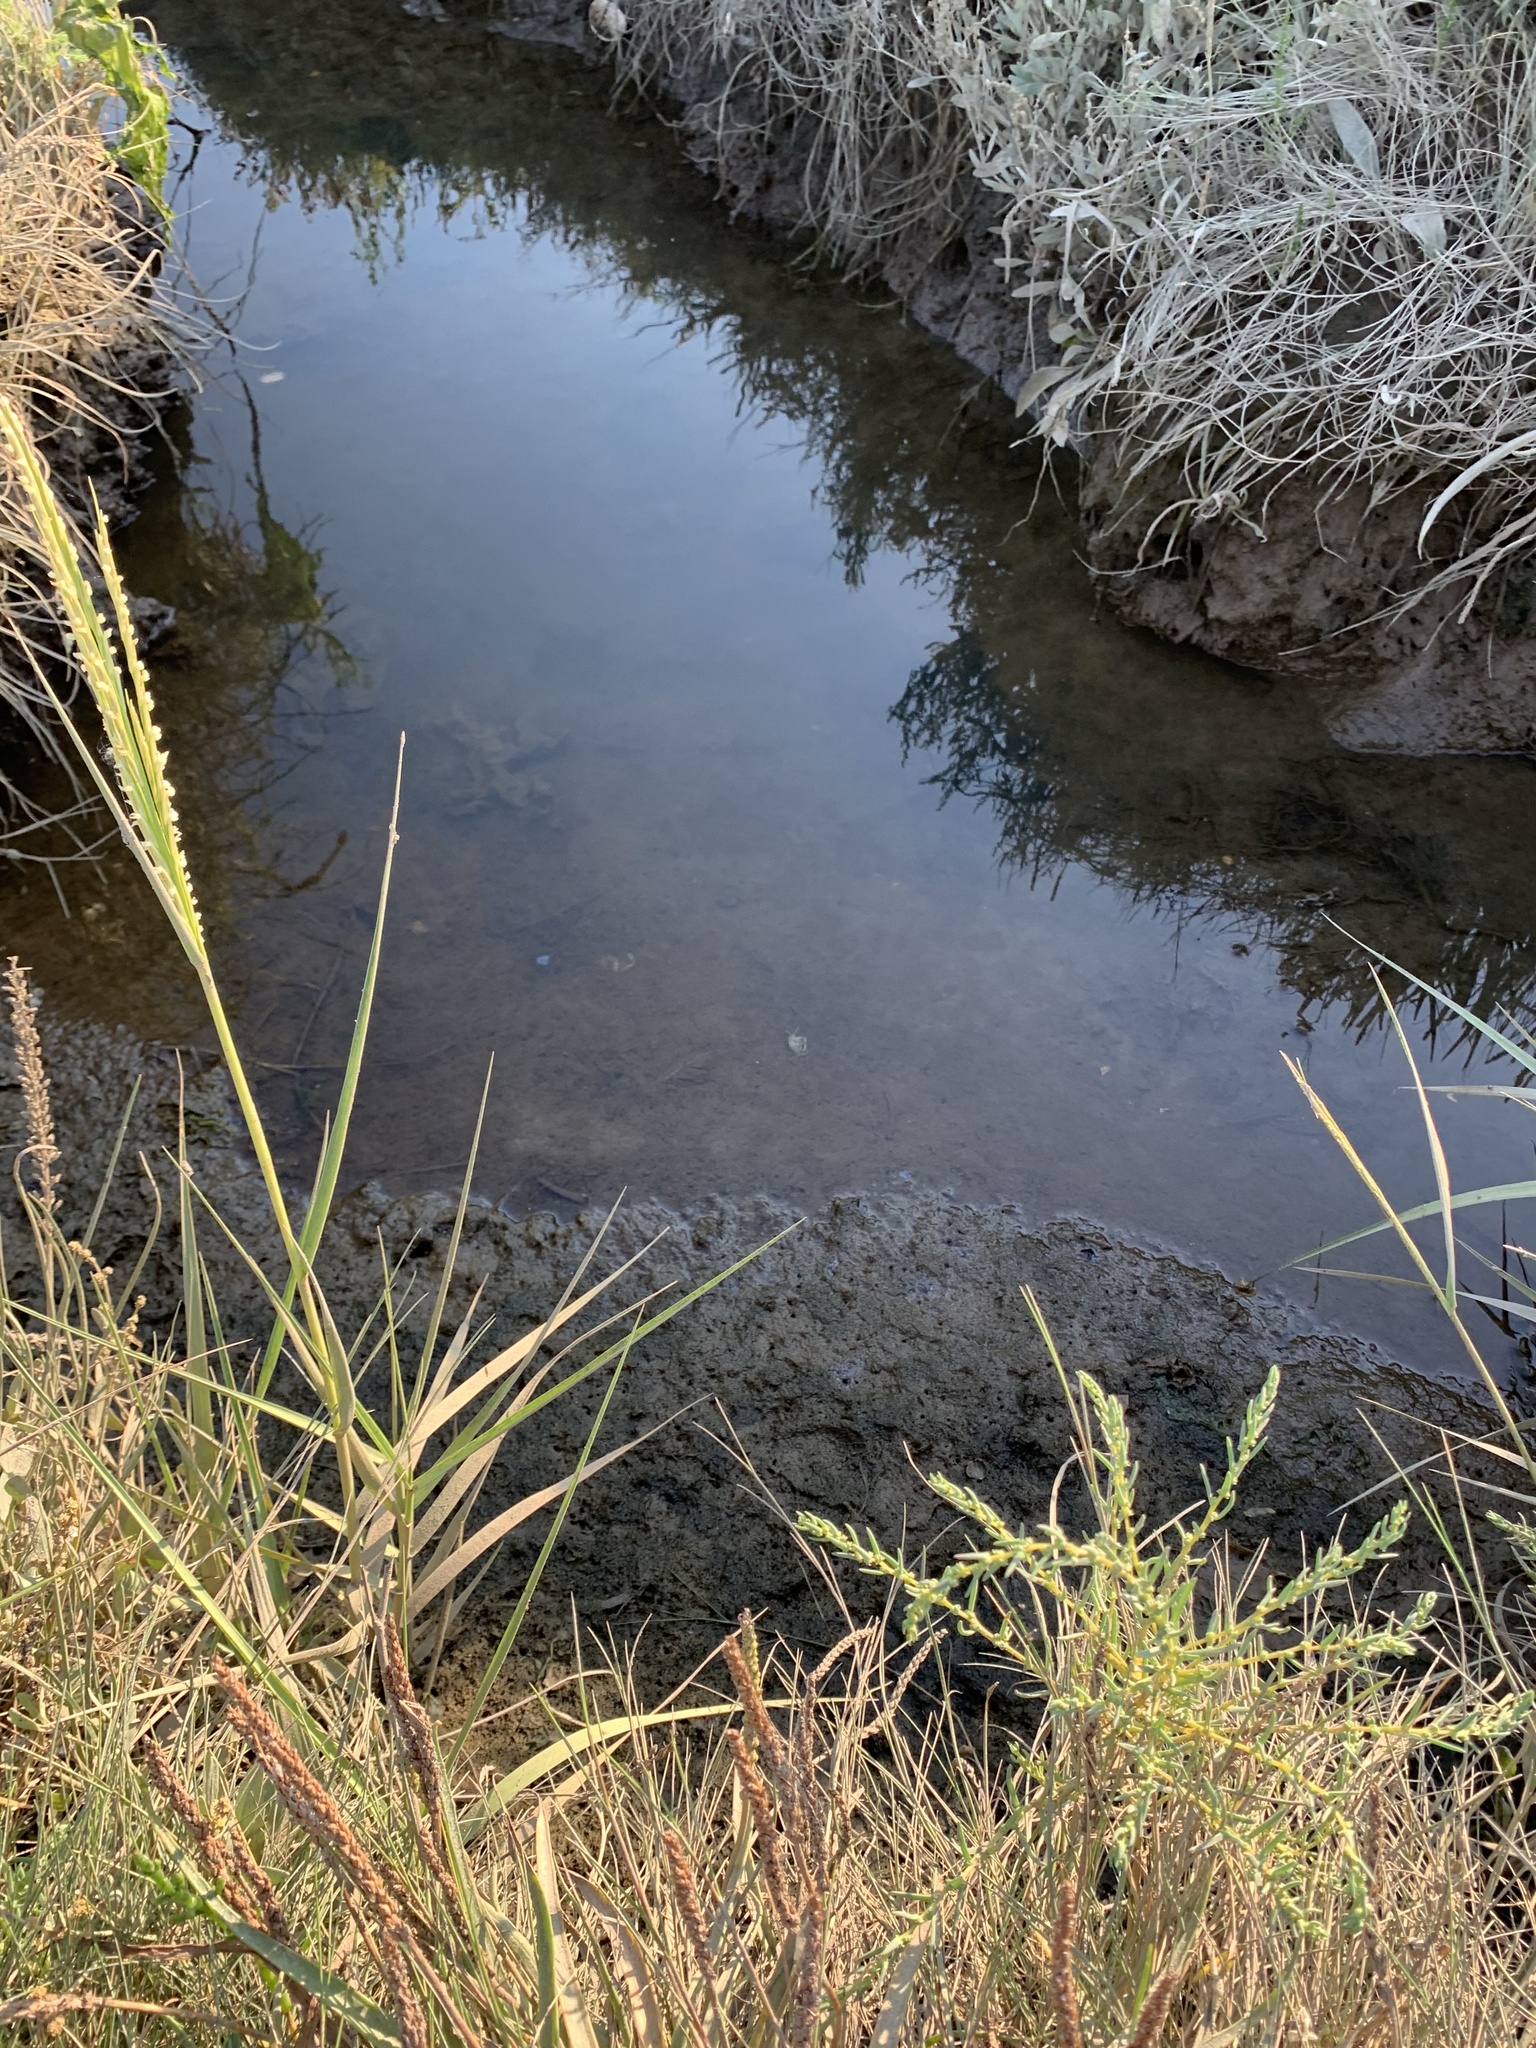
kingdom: Plantae
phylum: Tracheophyta
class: Liliopsida
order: Poales
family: Poaceae
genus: Sporobolus
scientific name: Sporobolus anglicus
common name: English cordgrass
